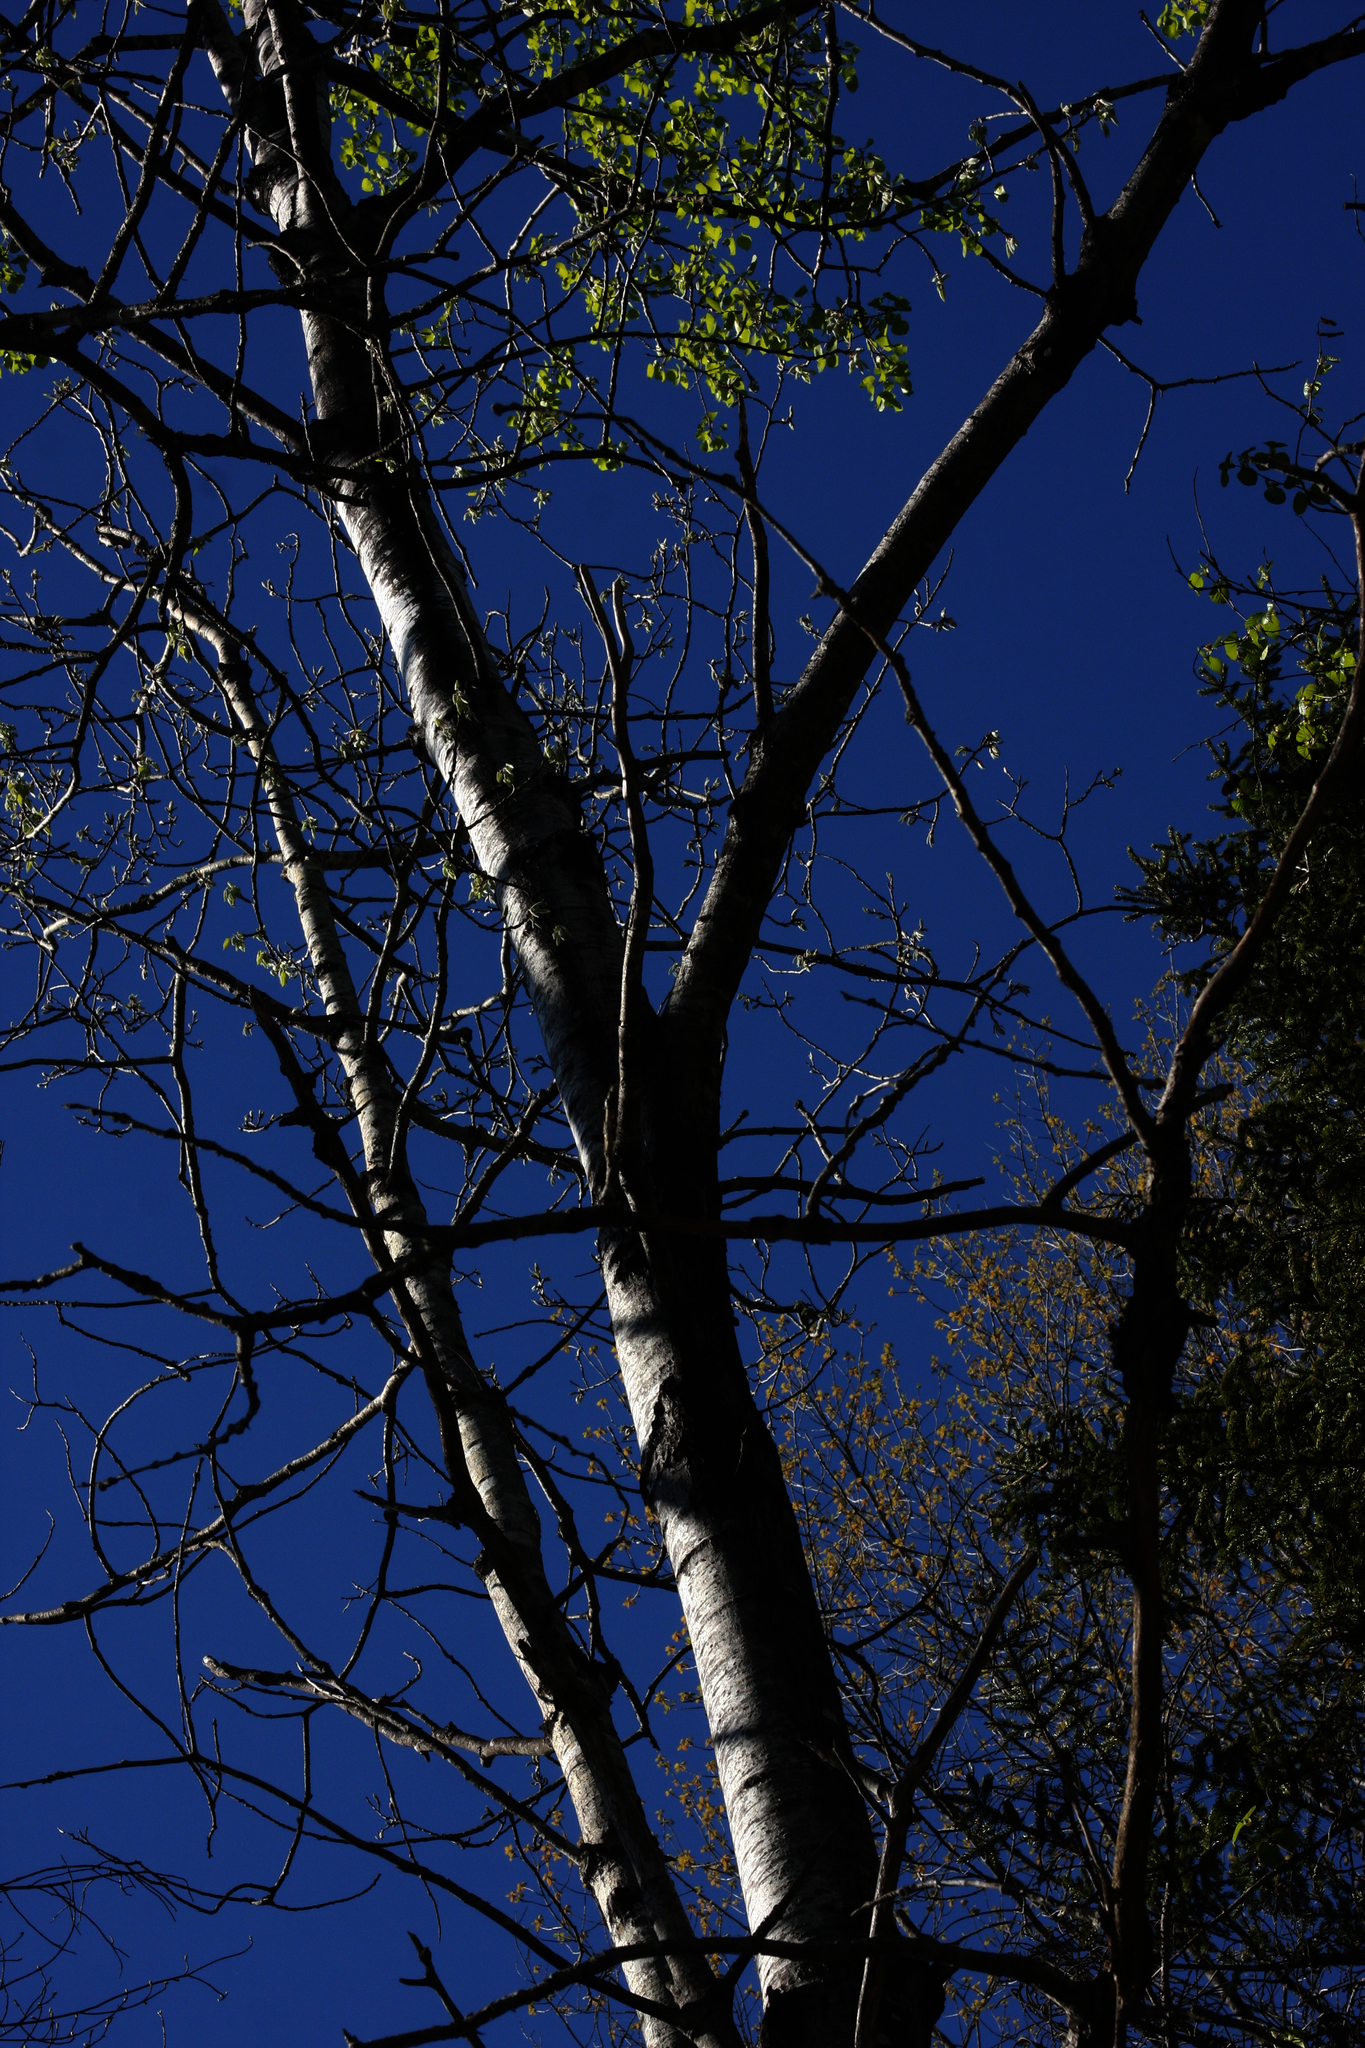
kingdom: Plantae
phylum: Tracheophyta
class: Magnoliopsida
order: Malpighiales
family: Salicaceae
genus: Populus
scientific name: Populus tremuloides
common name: Quaking aspen
